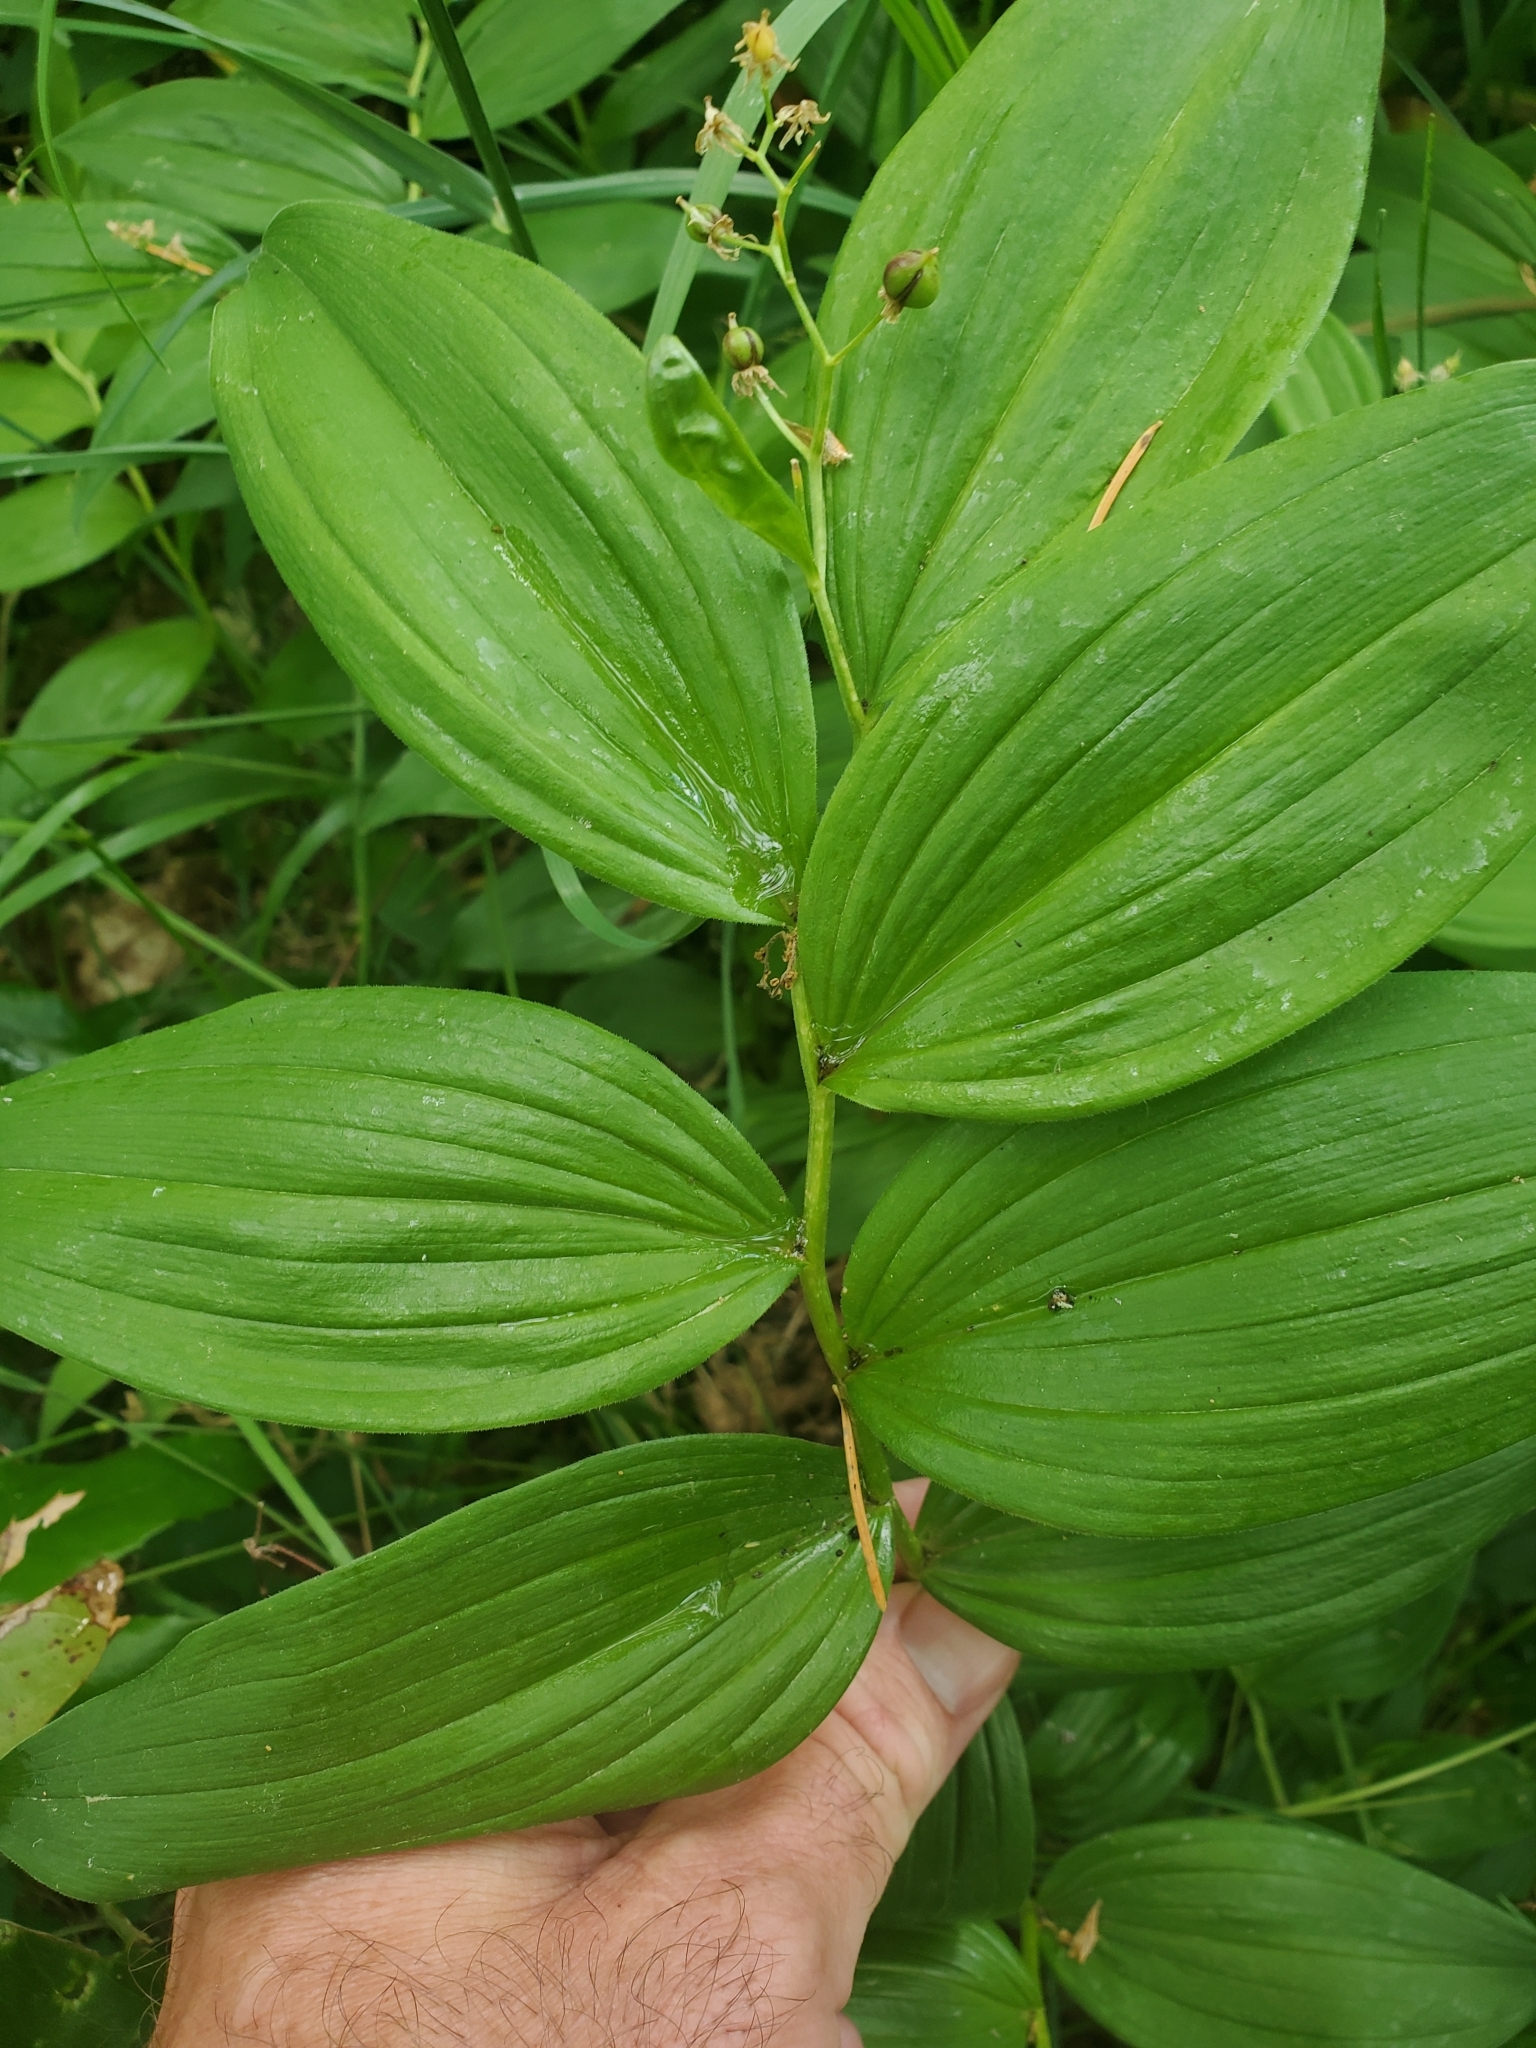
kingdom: Plantae
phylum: Tracheophyta
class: Liliopsida
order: Asparagales
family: Asparagaceae
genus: Maianthemum
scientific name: Maianthemum stellatum
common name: Little false solomon's seal
